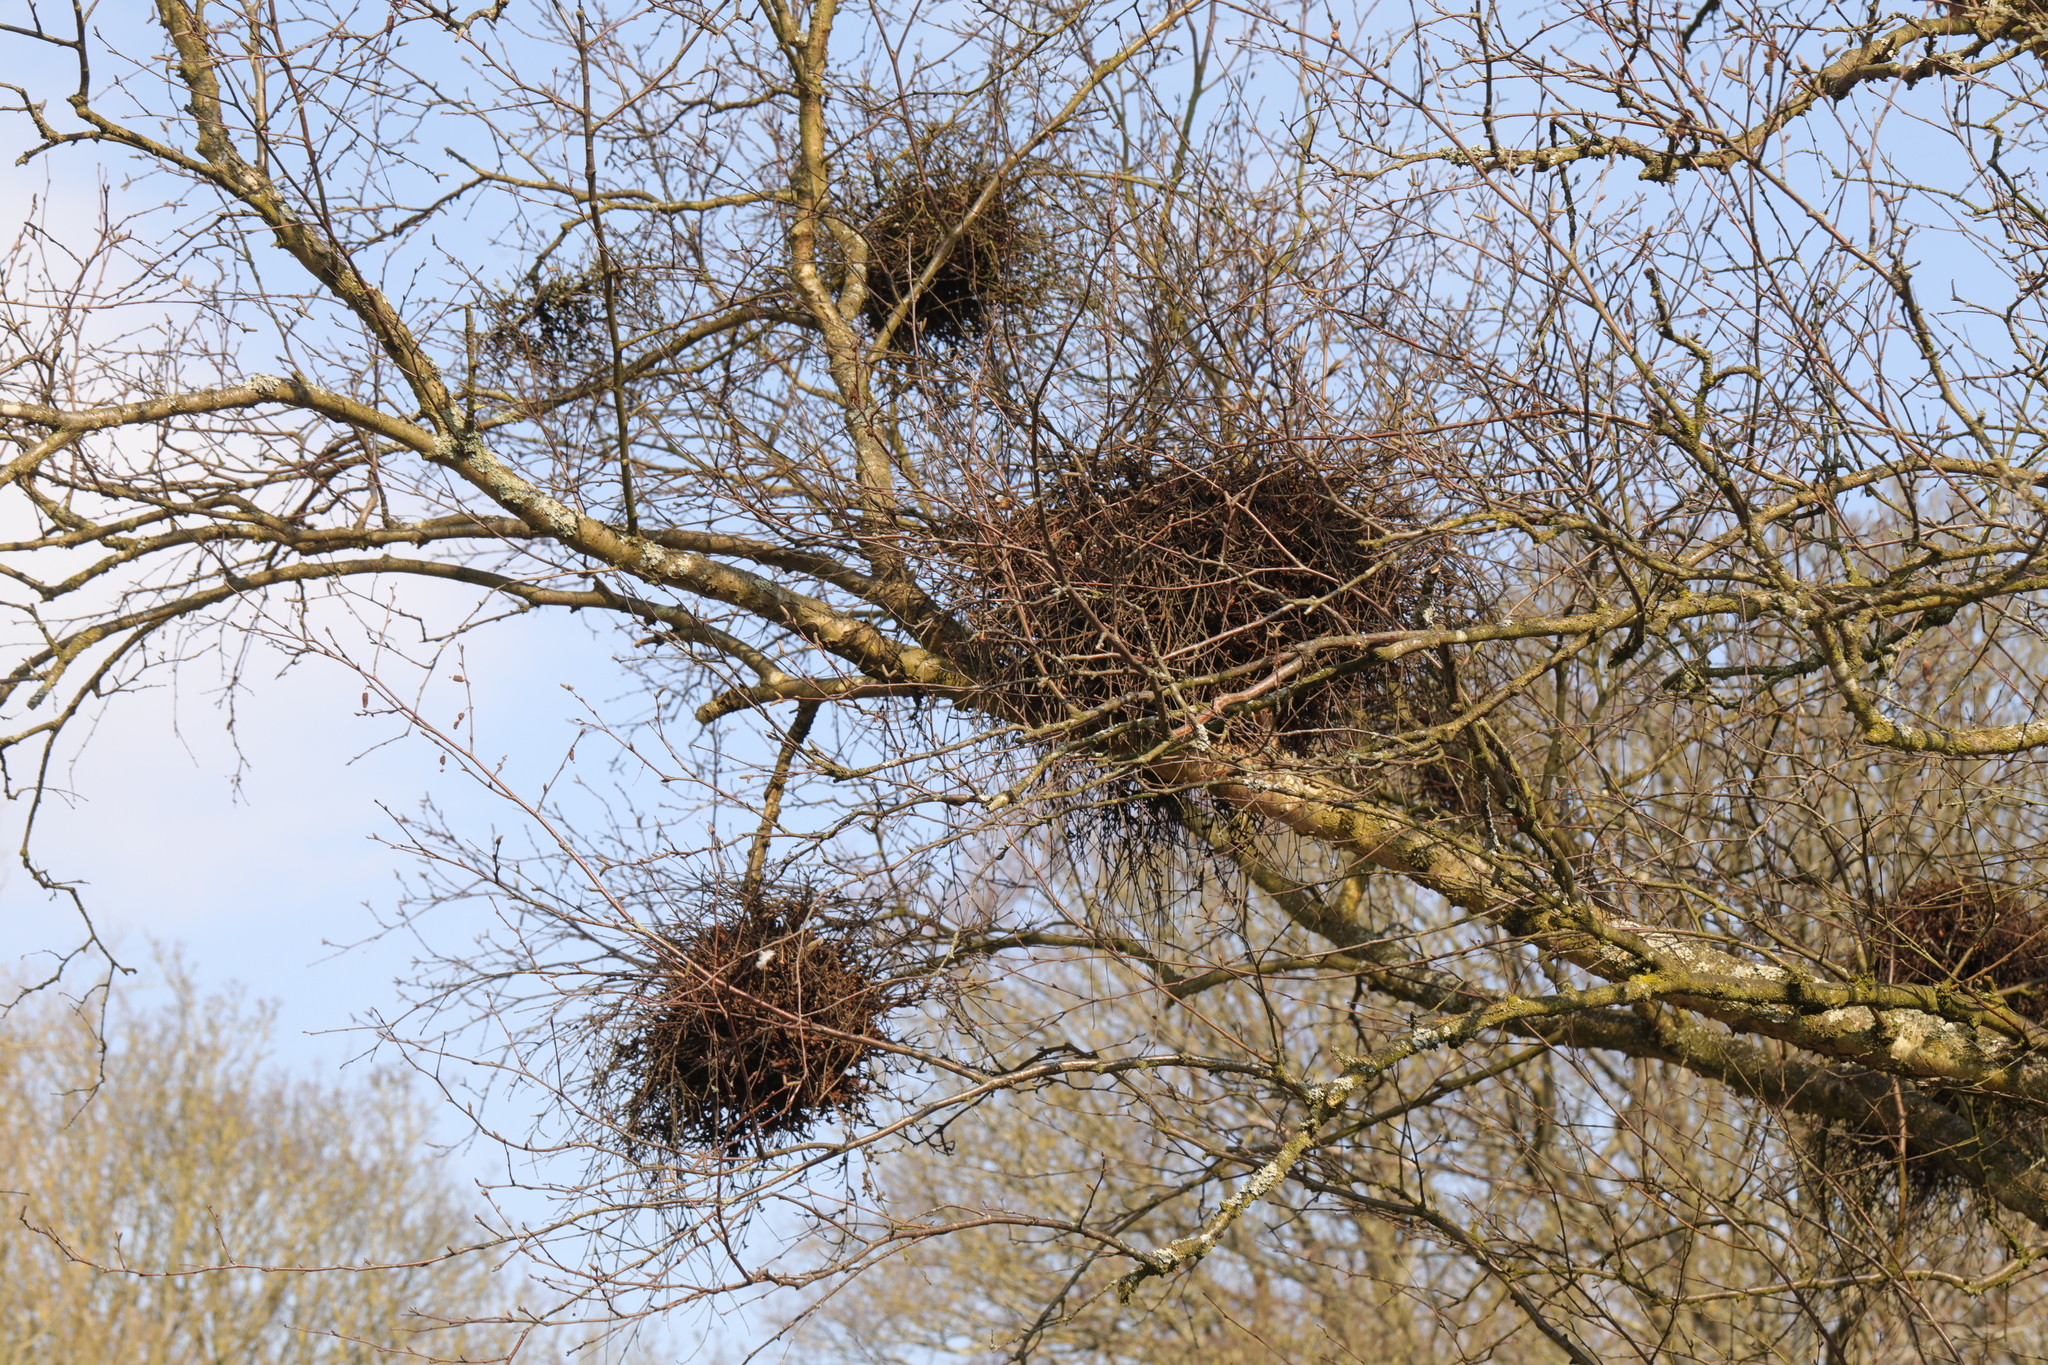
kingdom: Fungi
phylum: Ascomycota
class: Taphrinomycetes
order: Taphrinales
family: Taphrinaceae
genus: Taphrina
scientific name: Taphrina betulina
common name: Birch besom
